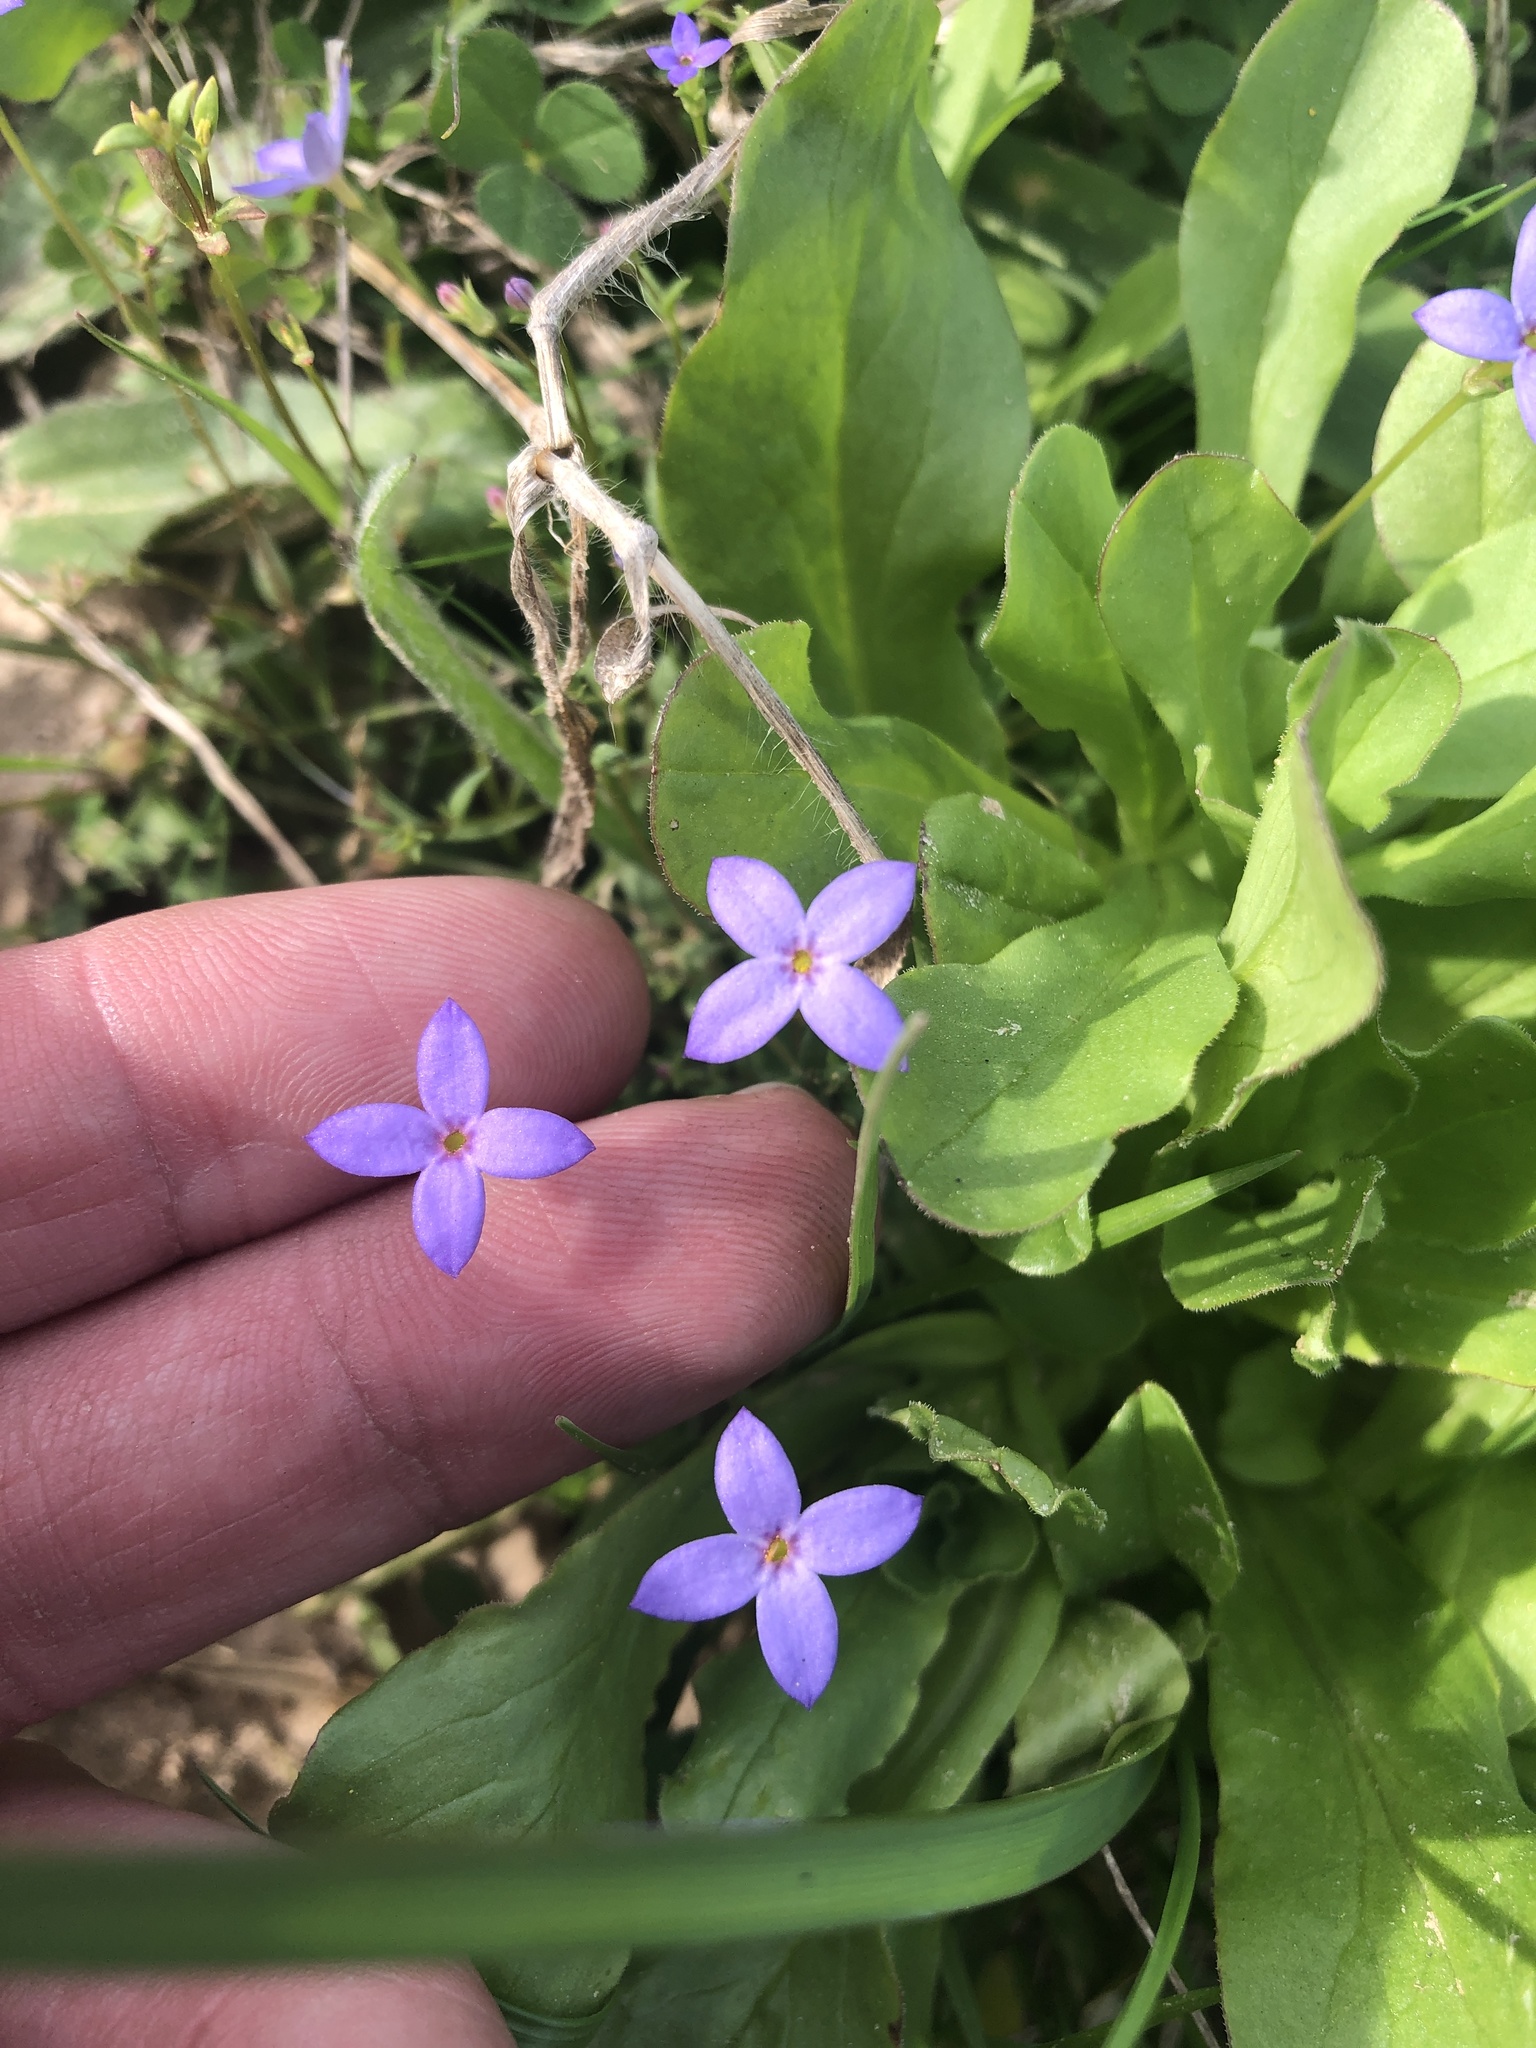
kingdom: Plantae
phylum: Tracheophyta
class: Magnoliopsida
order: Gentianales
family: Rubiaceae
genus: Houstonia
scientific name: Houstonia pusilla
